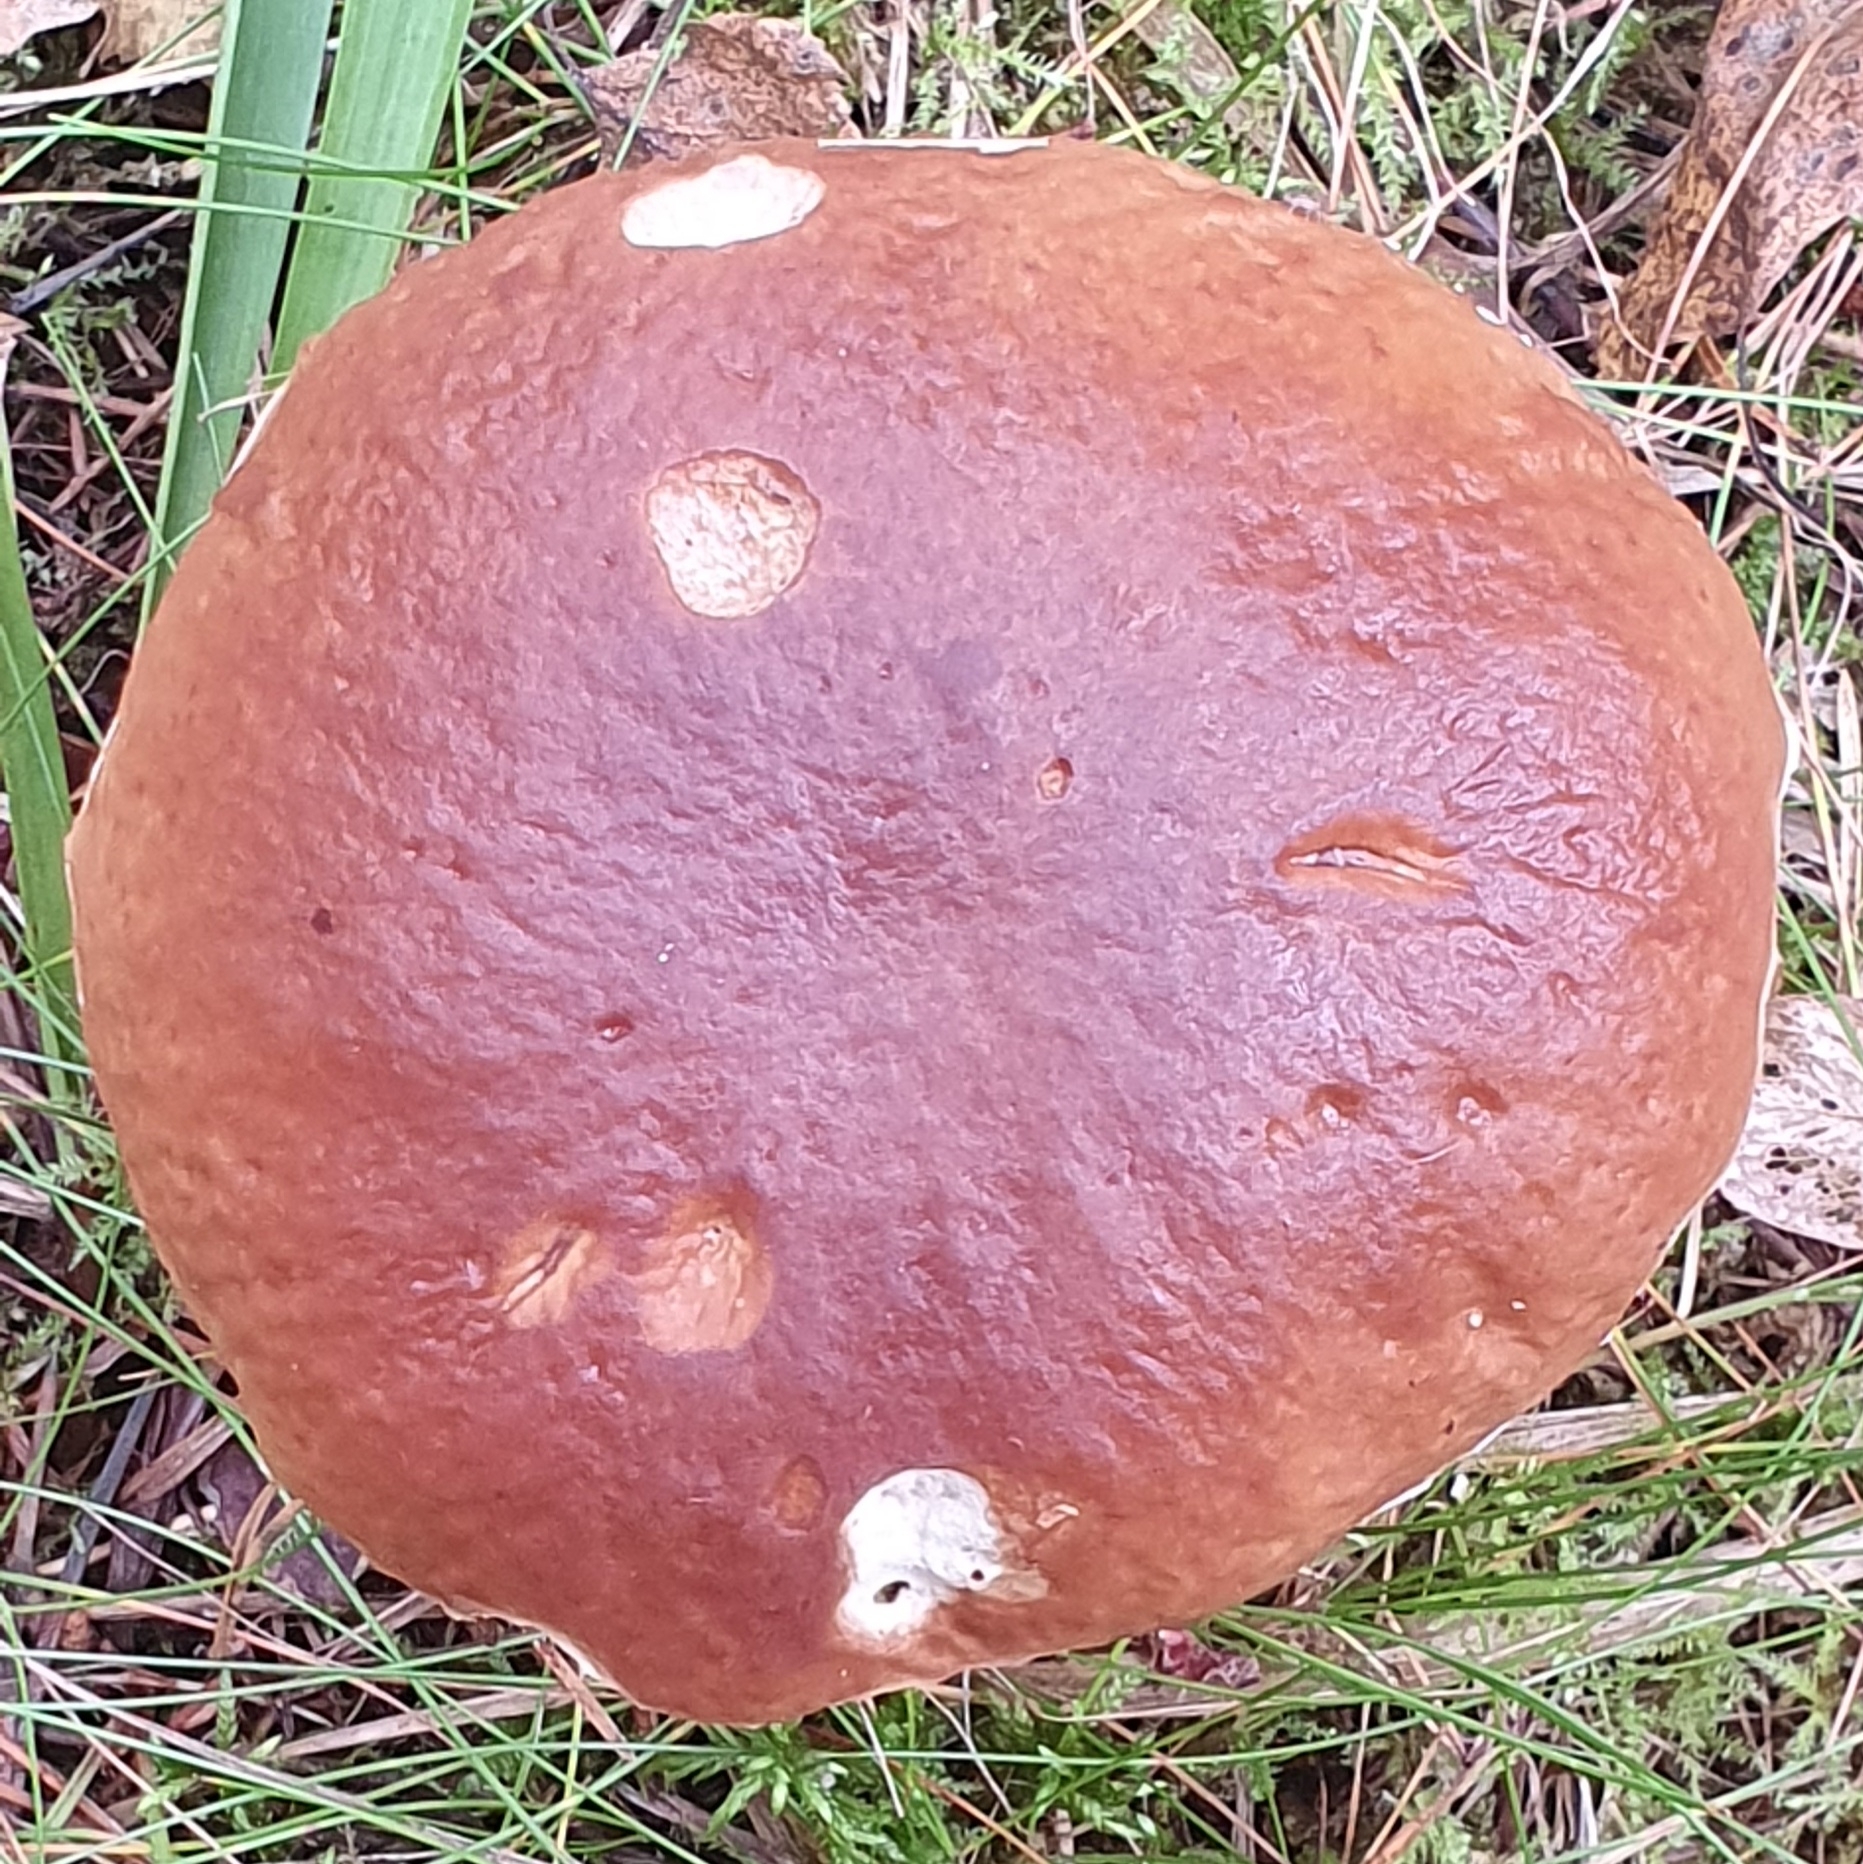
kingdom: Fungi
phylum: Basidiomycota
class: Agaricomycetes
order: Boletales
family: Boletaceae
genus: Boletus
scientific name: Boletus edulis
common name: Cep
